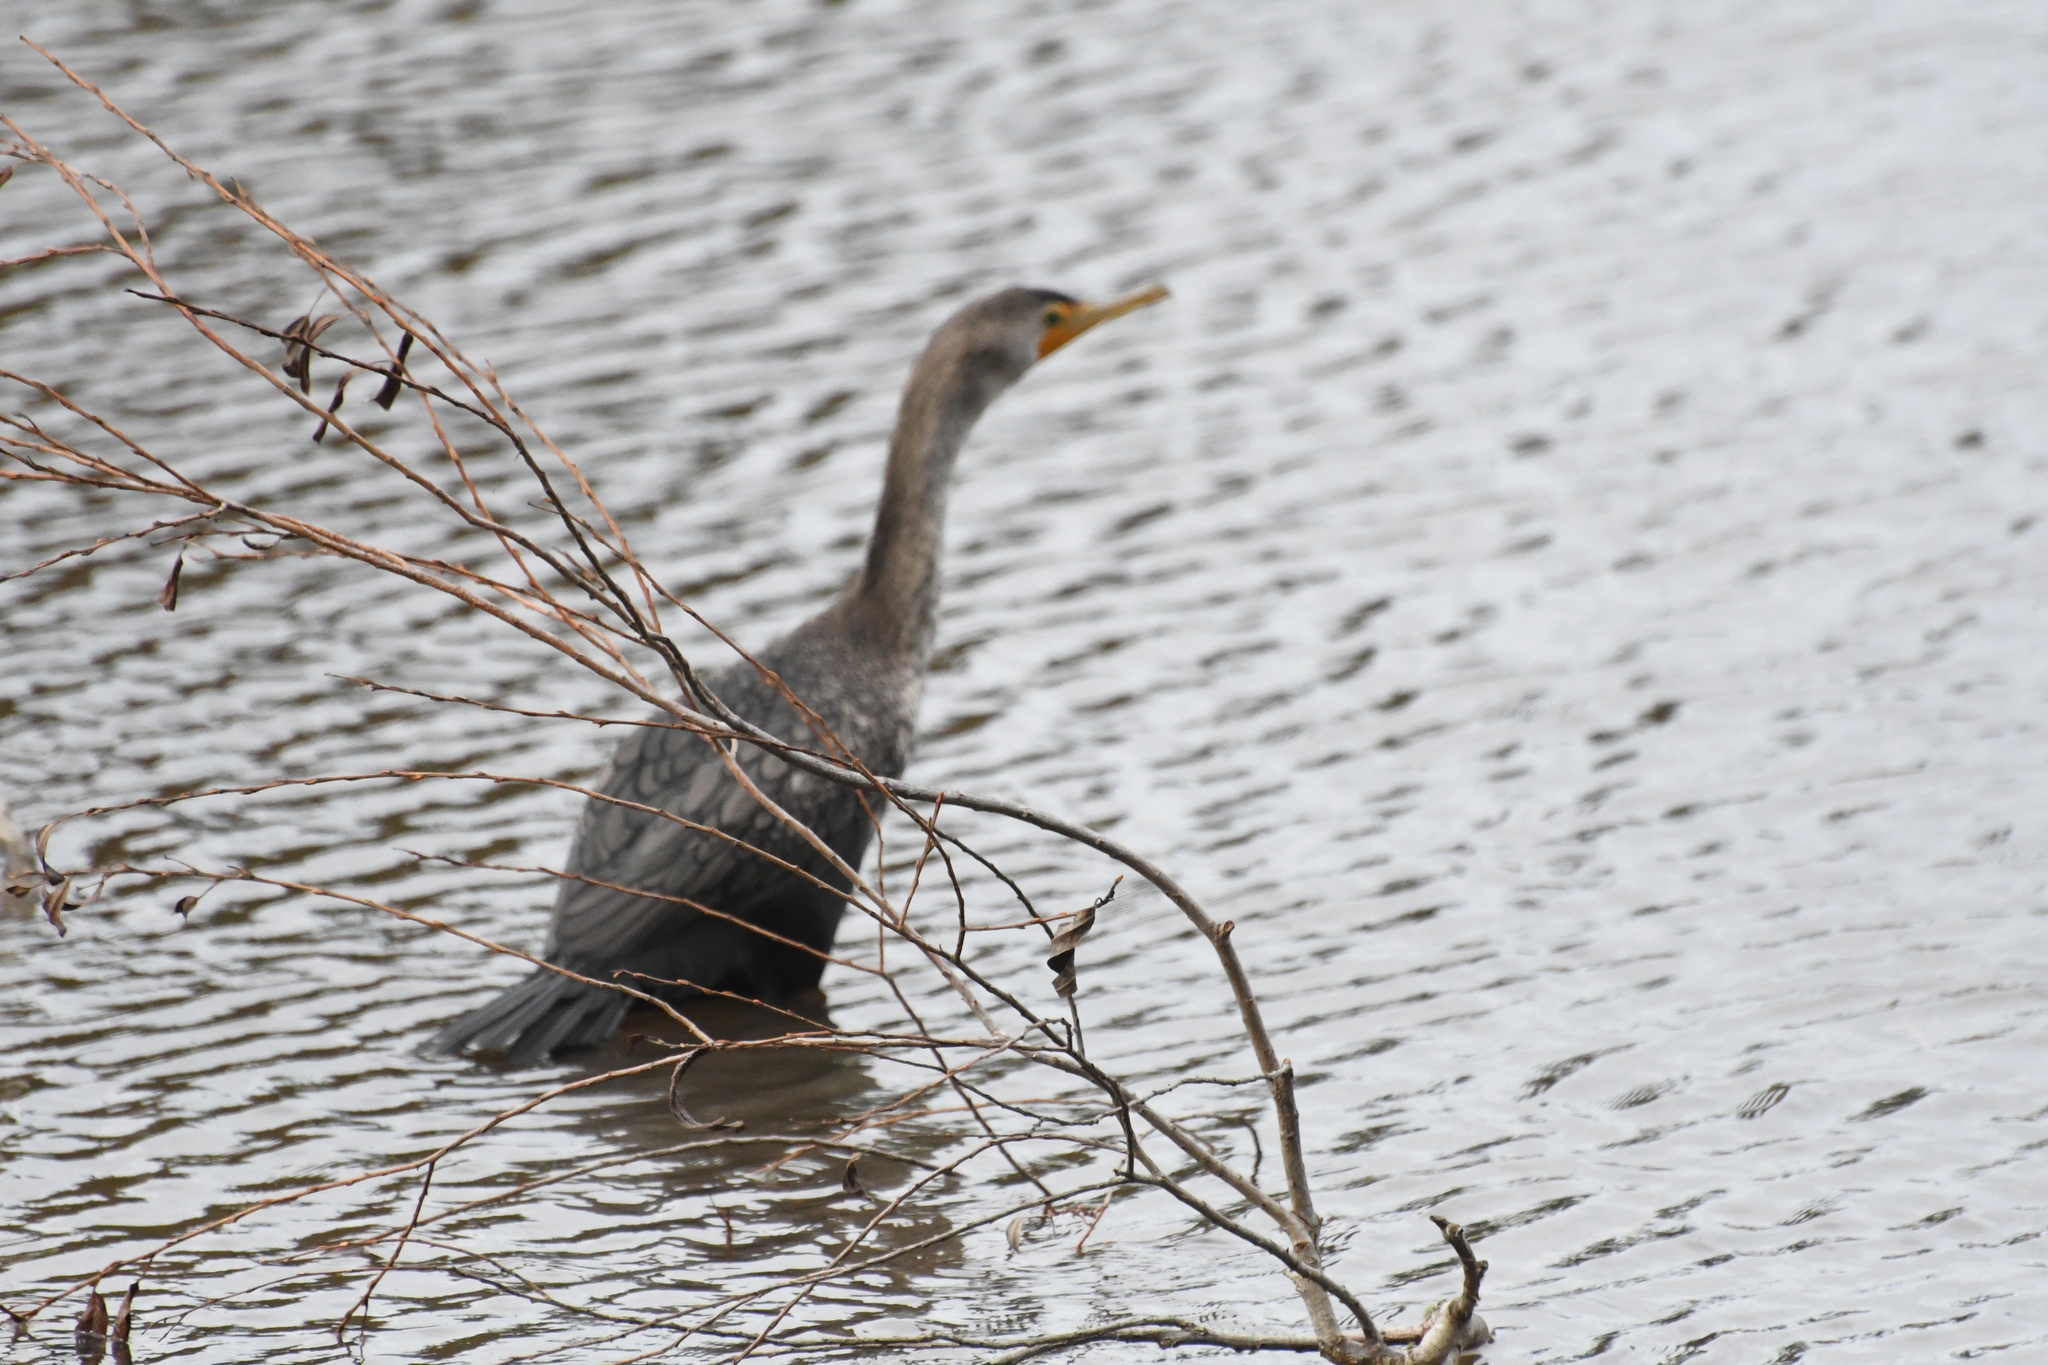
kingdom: Animalia
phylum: Chordata
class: Aves
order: Suliformes
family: Phalacrocoracidae
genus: Phalacrocorax
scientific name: Phalacrocorax auritus
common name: Double-crested cormorant
